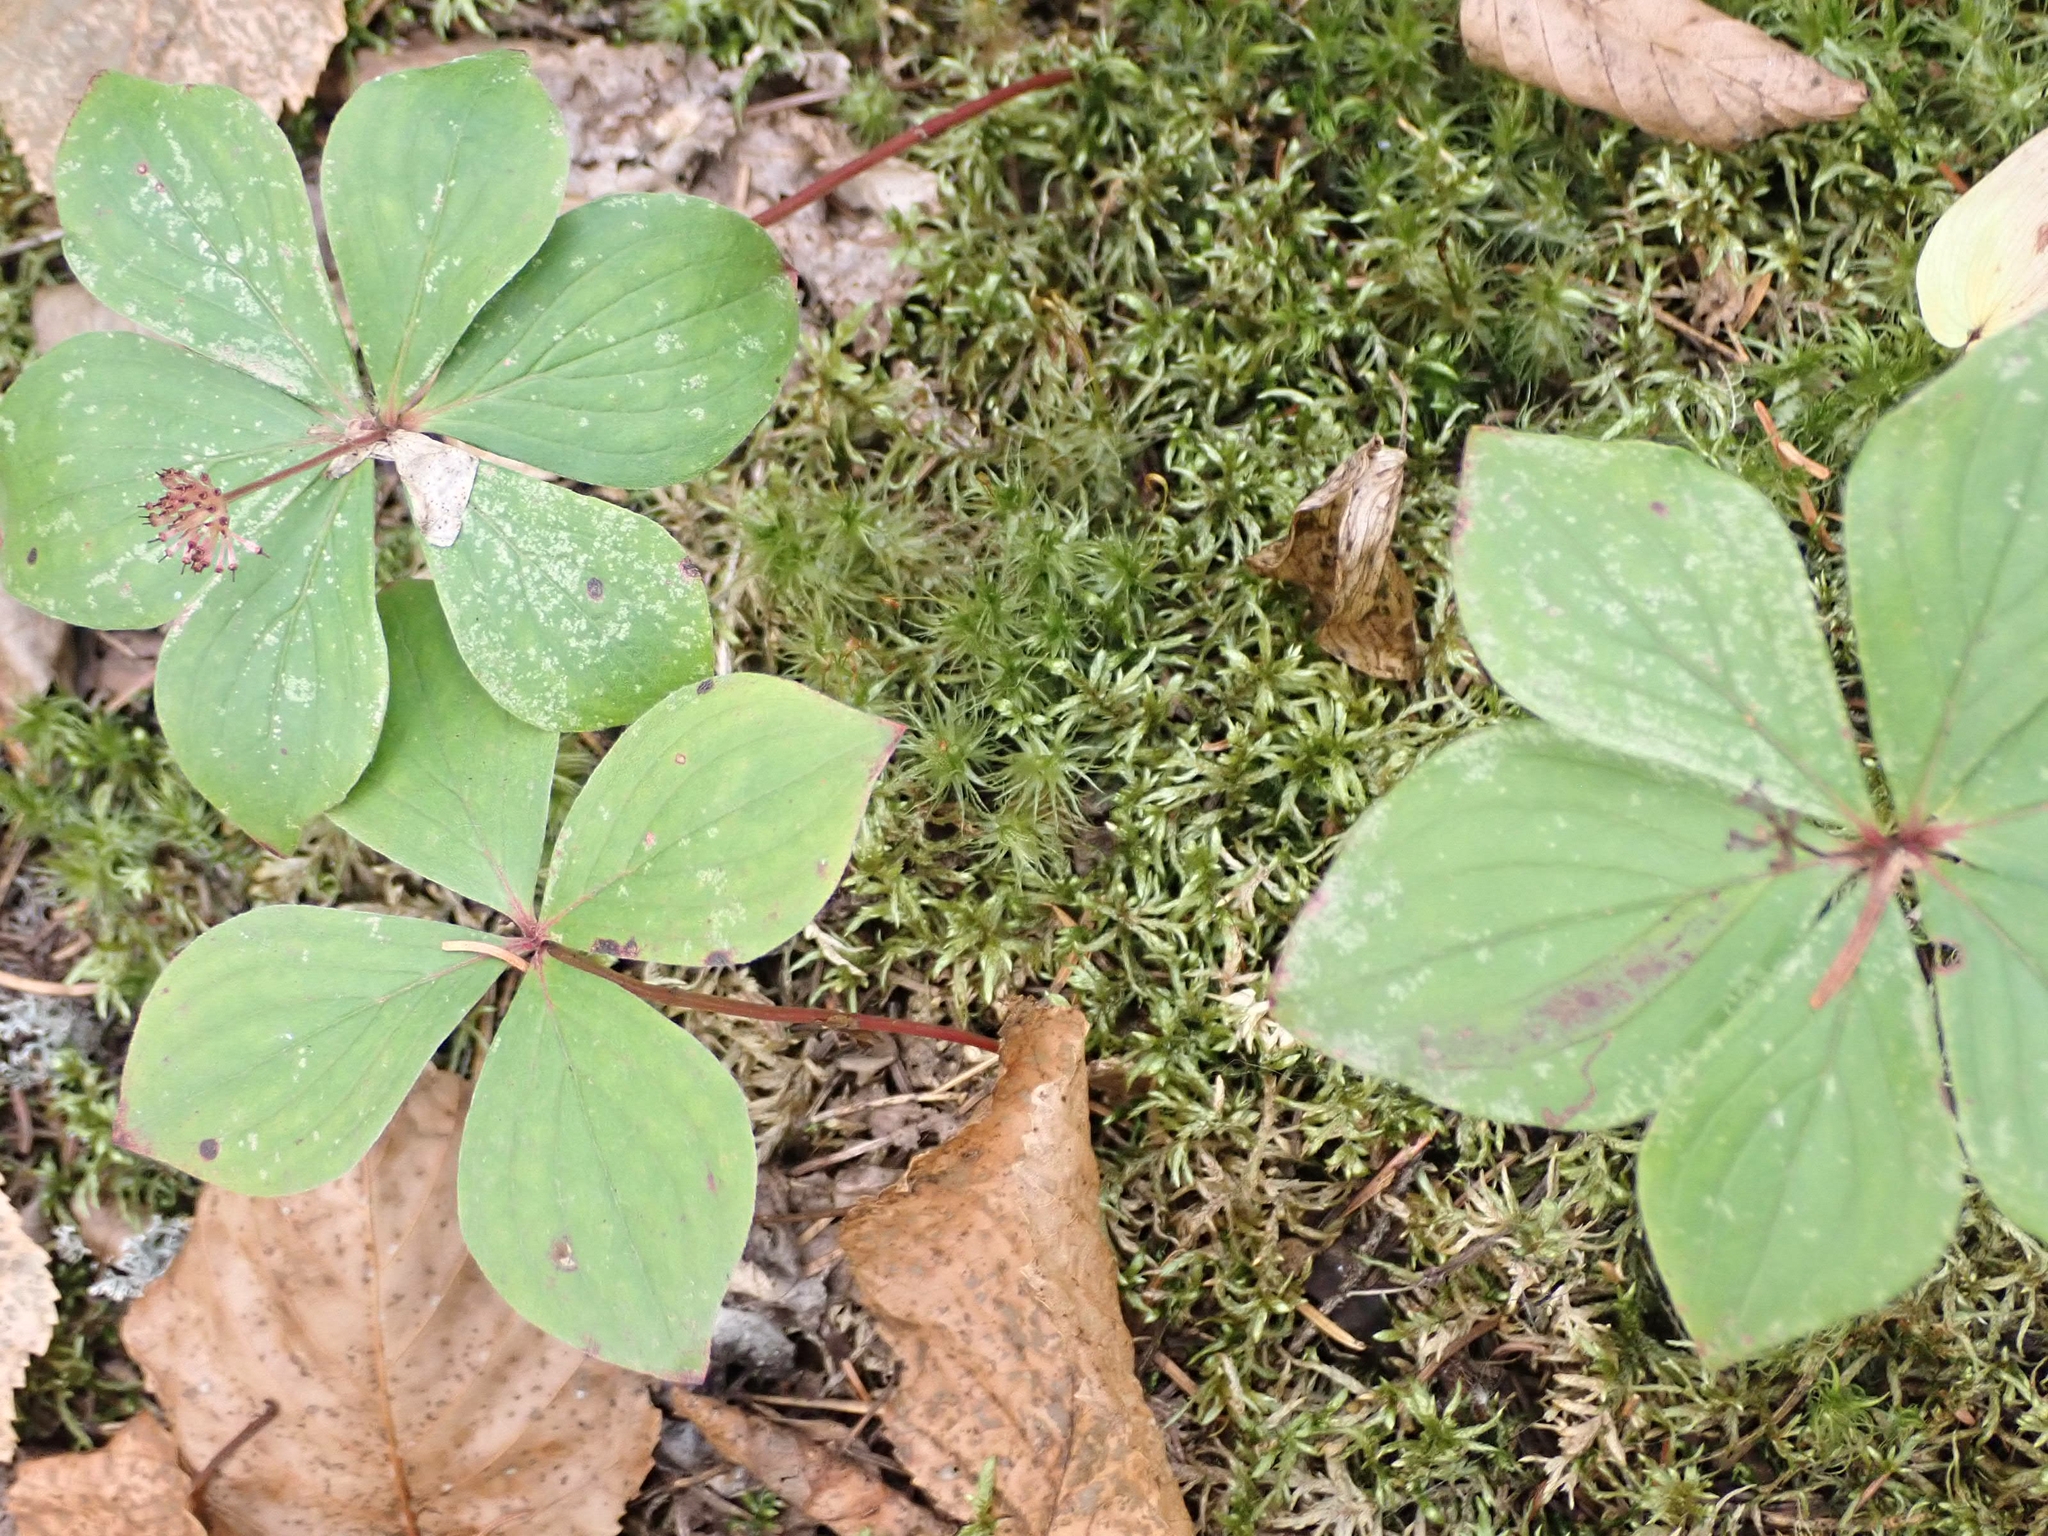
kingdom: Plantae
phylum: Tracheophyta
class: Magnoliopsida
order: Cornales
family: Cornaceae
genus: Cornus
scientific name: Cornus canadensis
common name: Creeping dogwood
